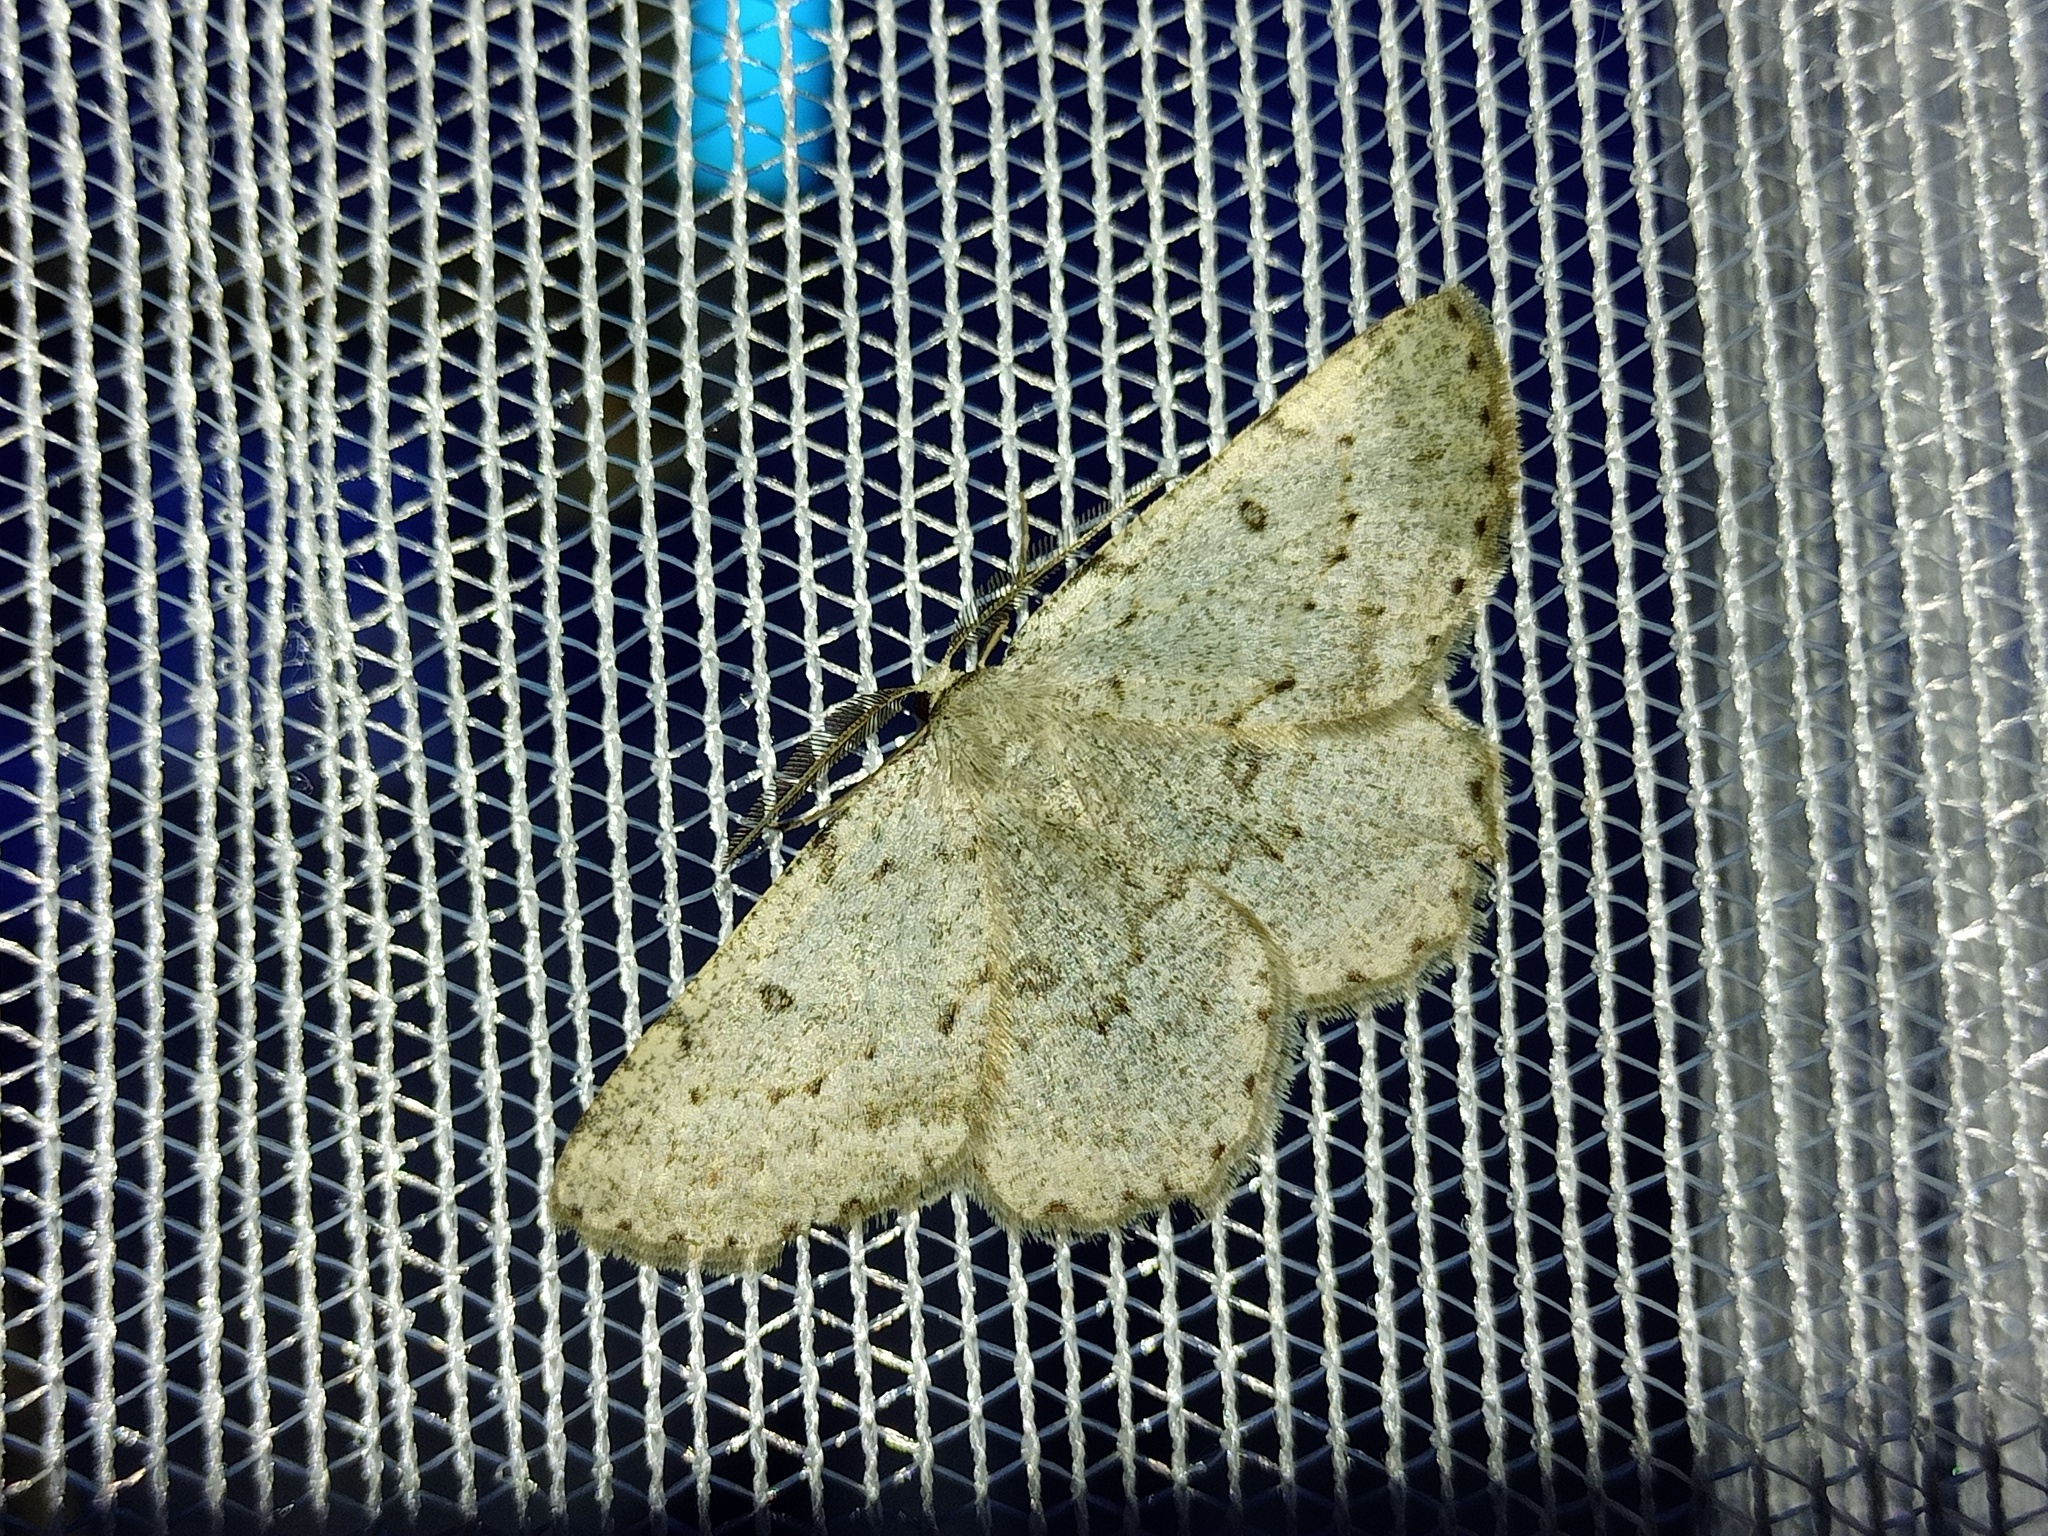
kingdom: Animalia
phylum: Arthropoda
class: Insecta
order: Lepidoptera
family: Geometridae
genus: Elophos
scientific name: Elophos Yezognophos dilucidaria
